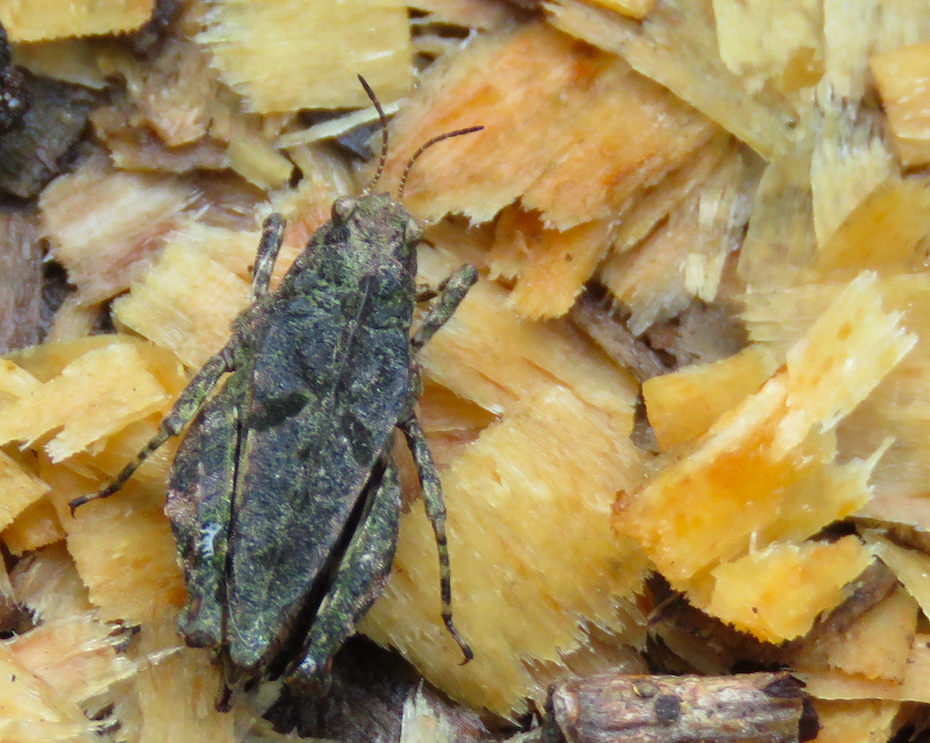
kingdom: Animalia
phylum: Arthropoda
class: Insecta
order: Orthoptera
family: Tetrigidae
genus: Tetrix
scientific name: Tetrix transsylvanica
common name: Transsylvanian wingless groundhopper
